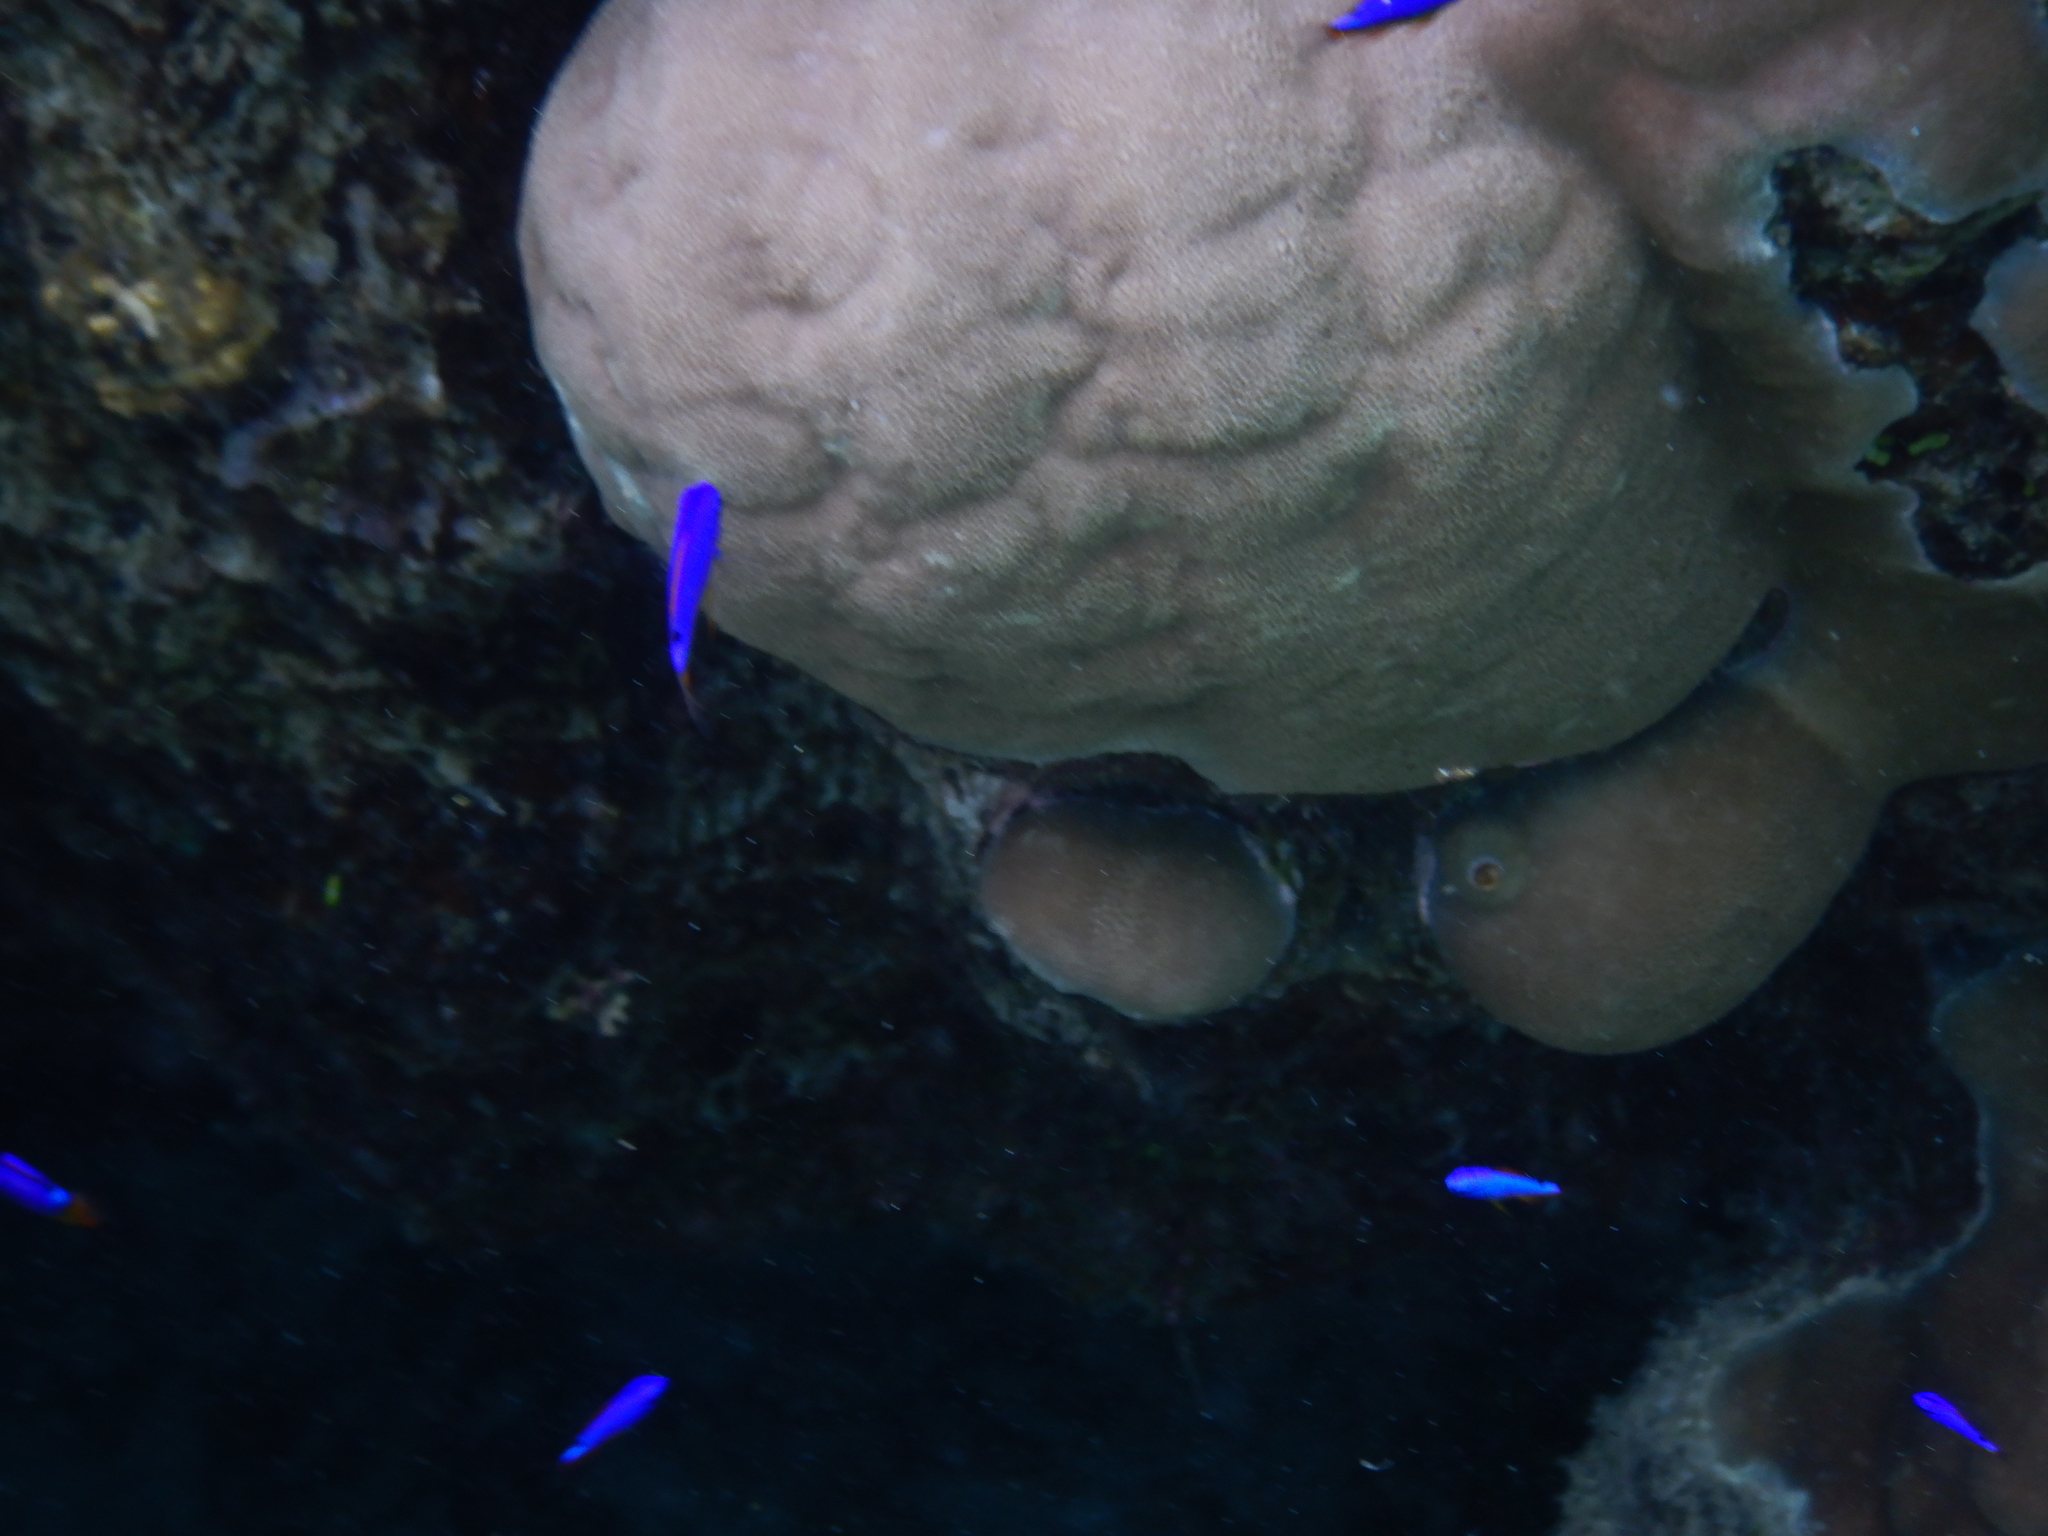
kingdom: Animalia
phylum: Chordata
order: Perciformes
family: Pomacentridae
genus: Chrysiptera
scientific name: Chrysiptera taupou
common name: Fiji damsel
